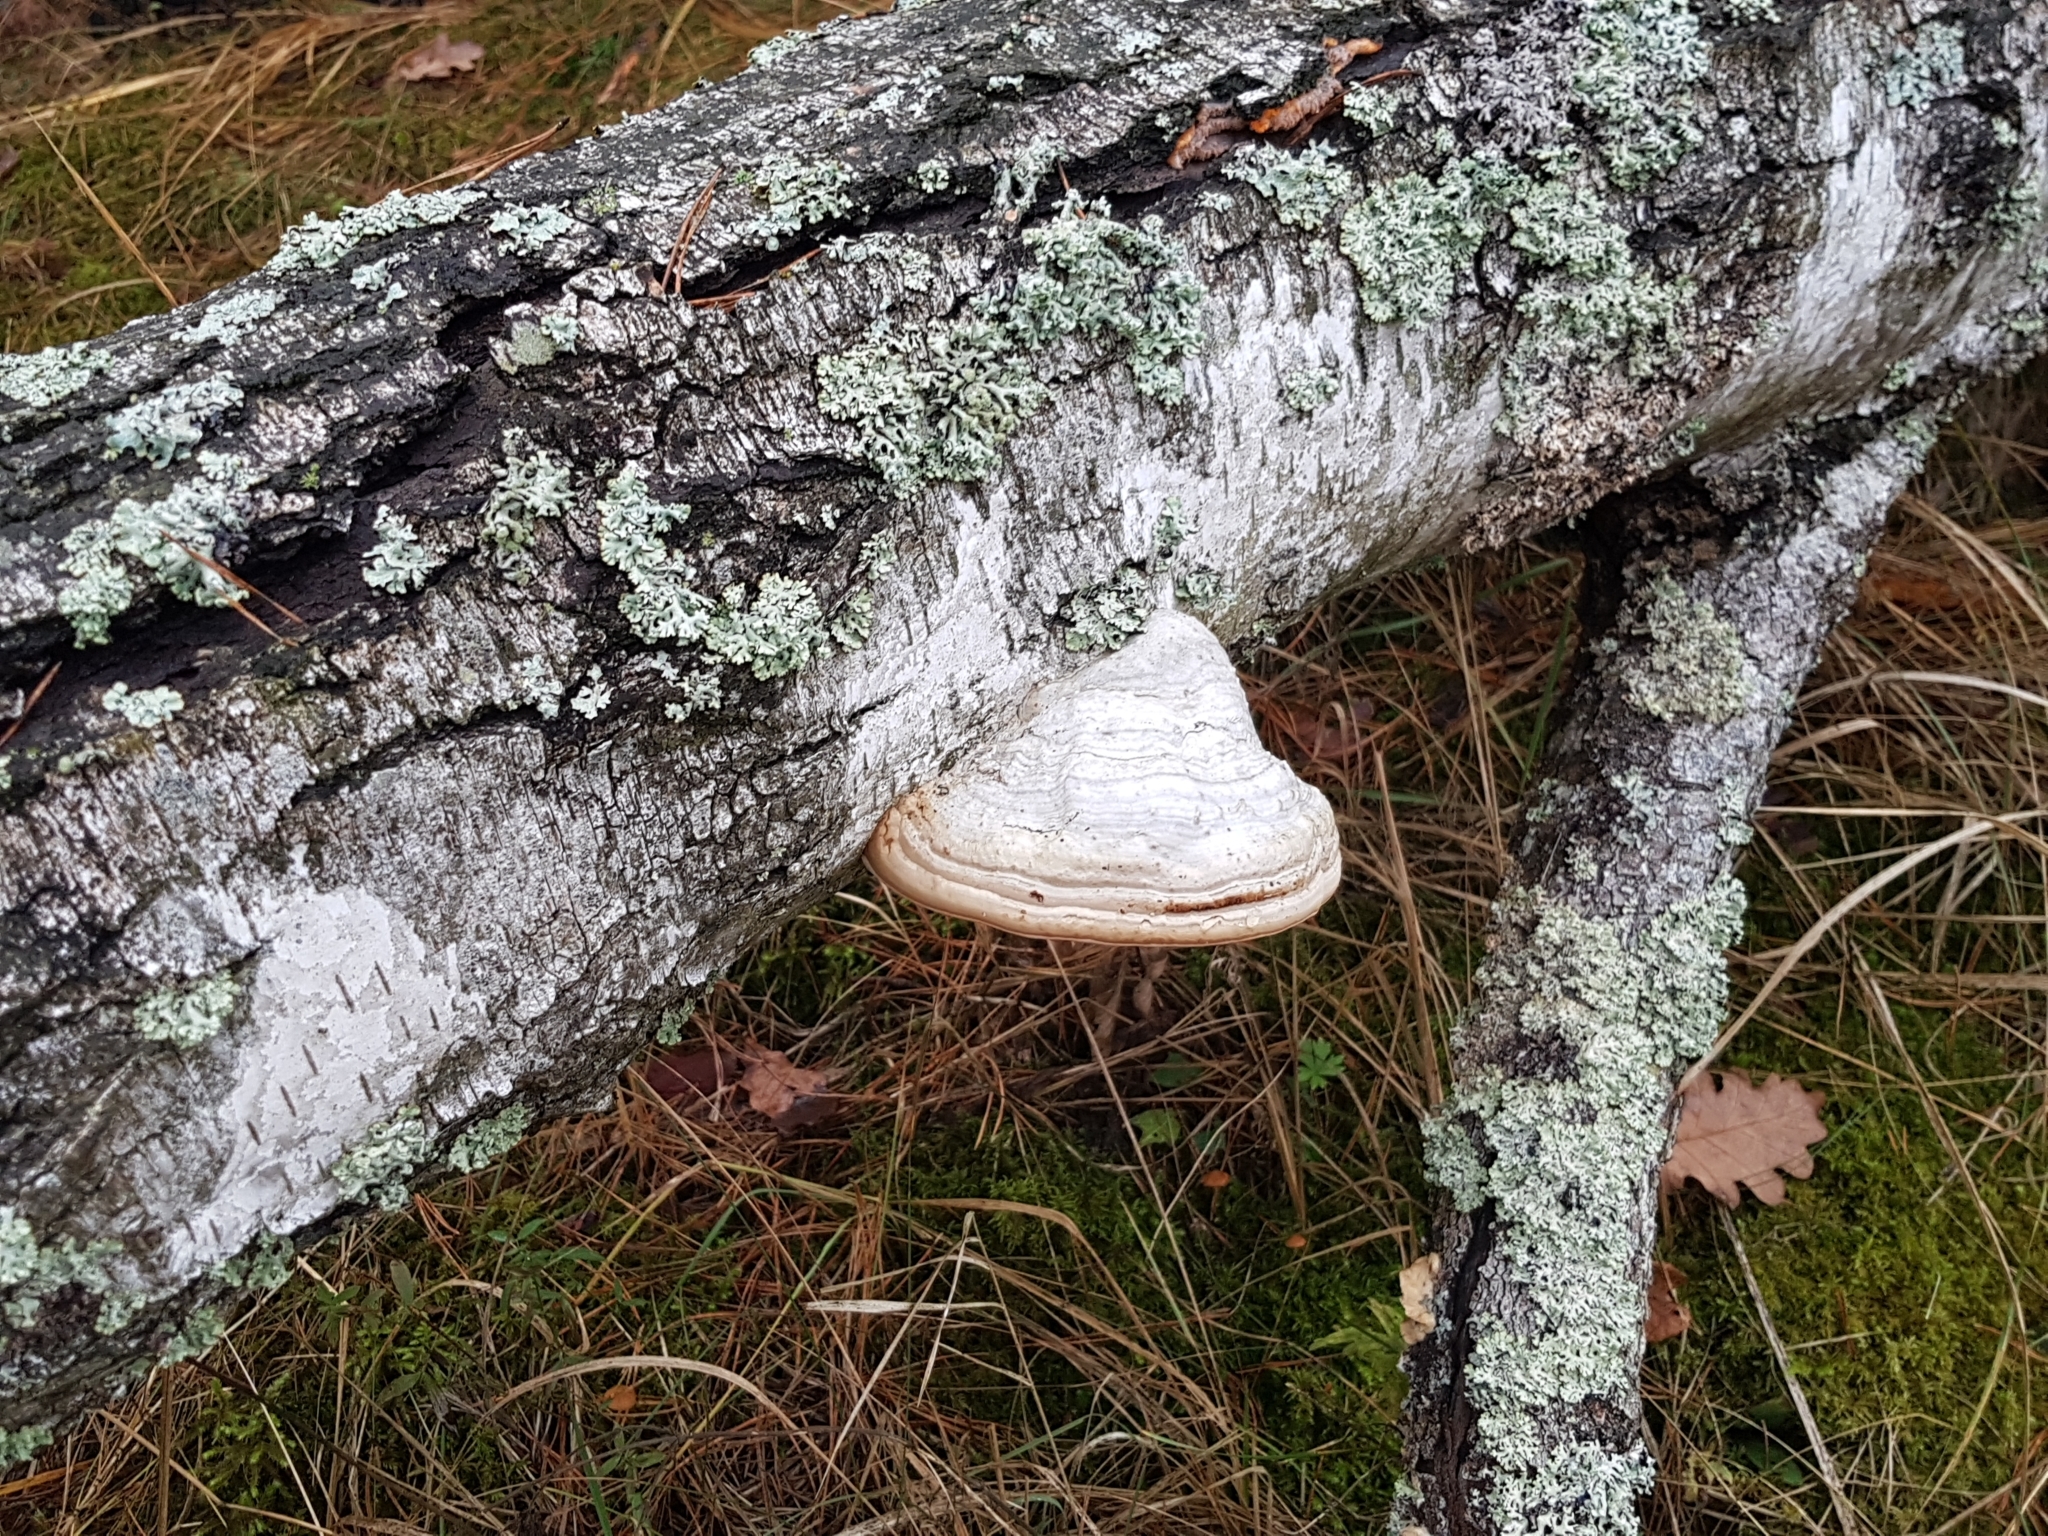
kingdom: Fungi
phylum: Basidiomycota
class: Agaricomycetes
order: Polyporales
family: Polyporaceae
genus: Fomes
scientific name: Fomes fomentarius
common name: Hoof fungus
